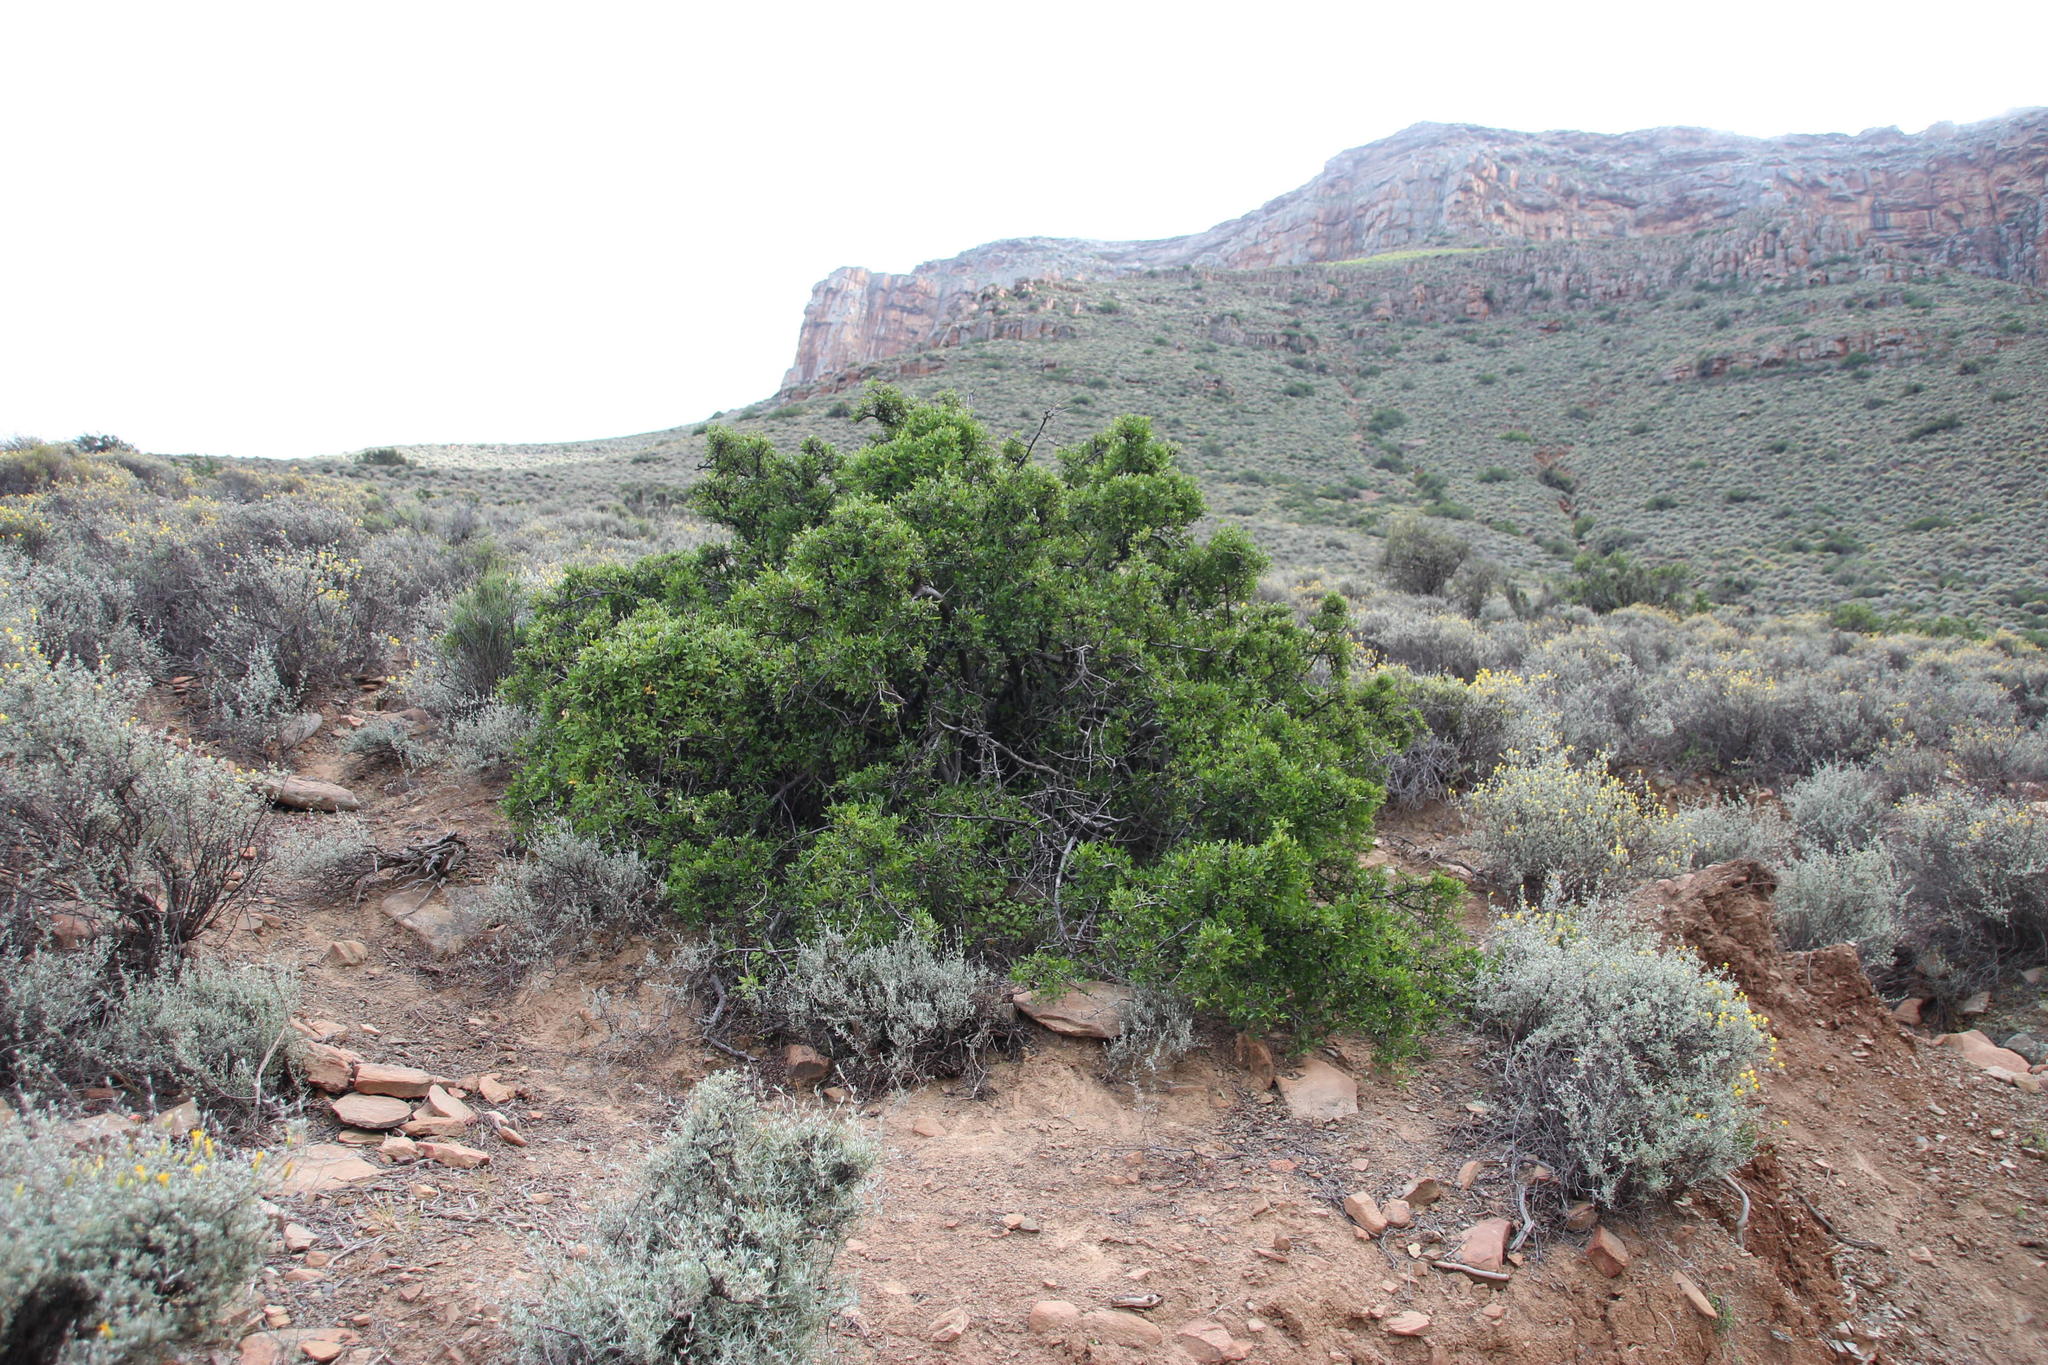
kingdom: Plantae
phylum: Tracheophyta
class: Magnoliopsida
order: Sapindales
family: Anacardiaceae
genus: Searsia
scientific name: Searsia undulata
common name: Namaqua kunibush
